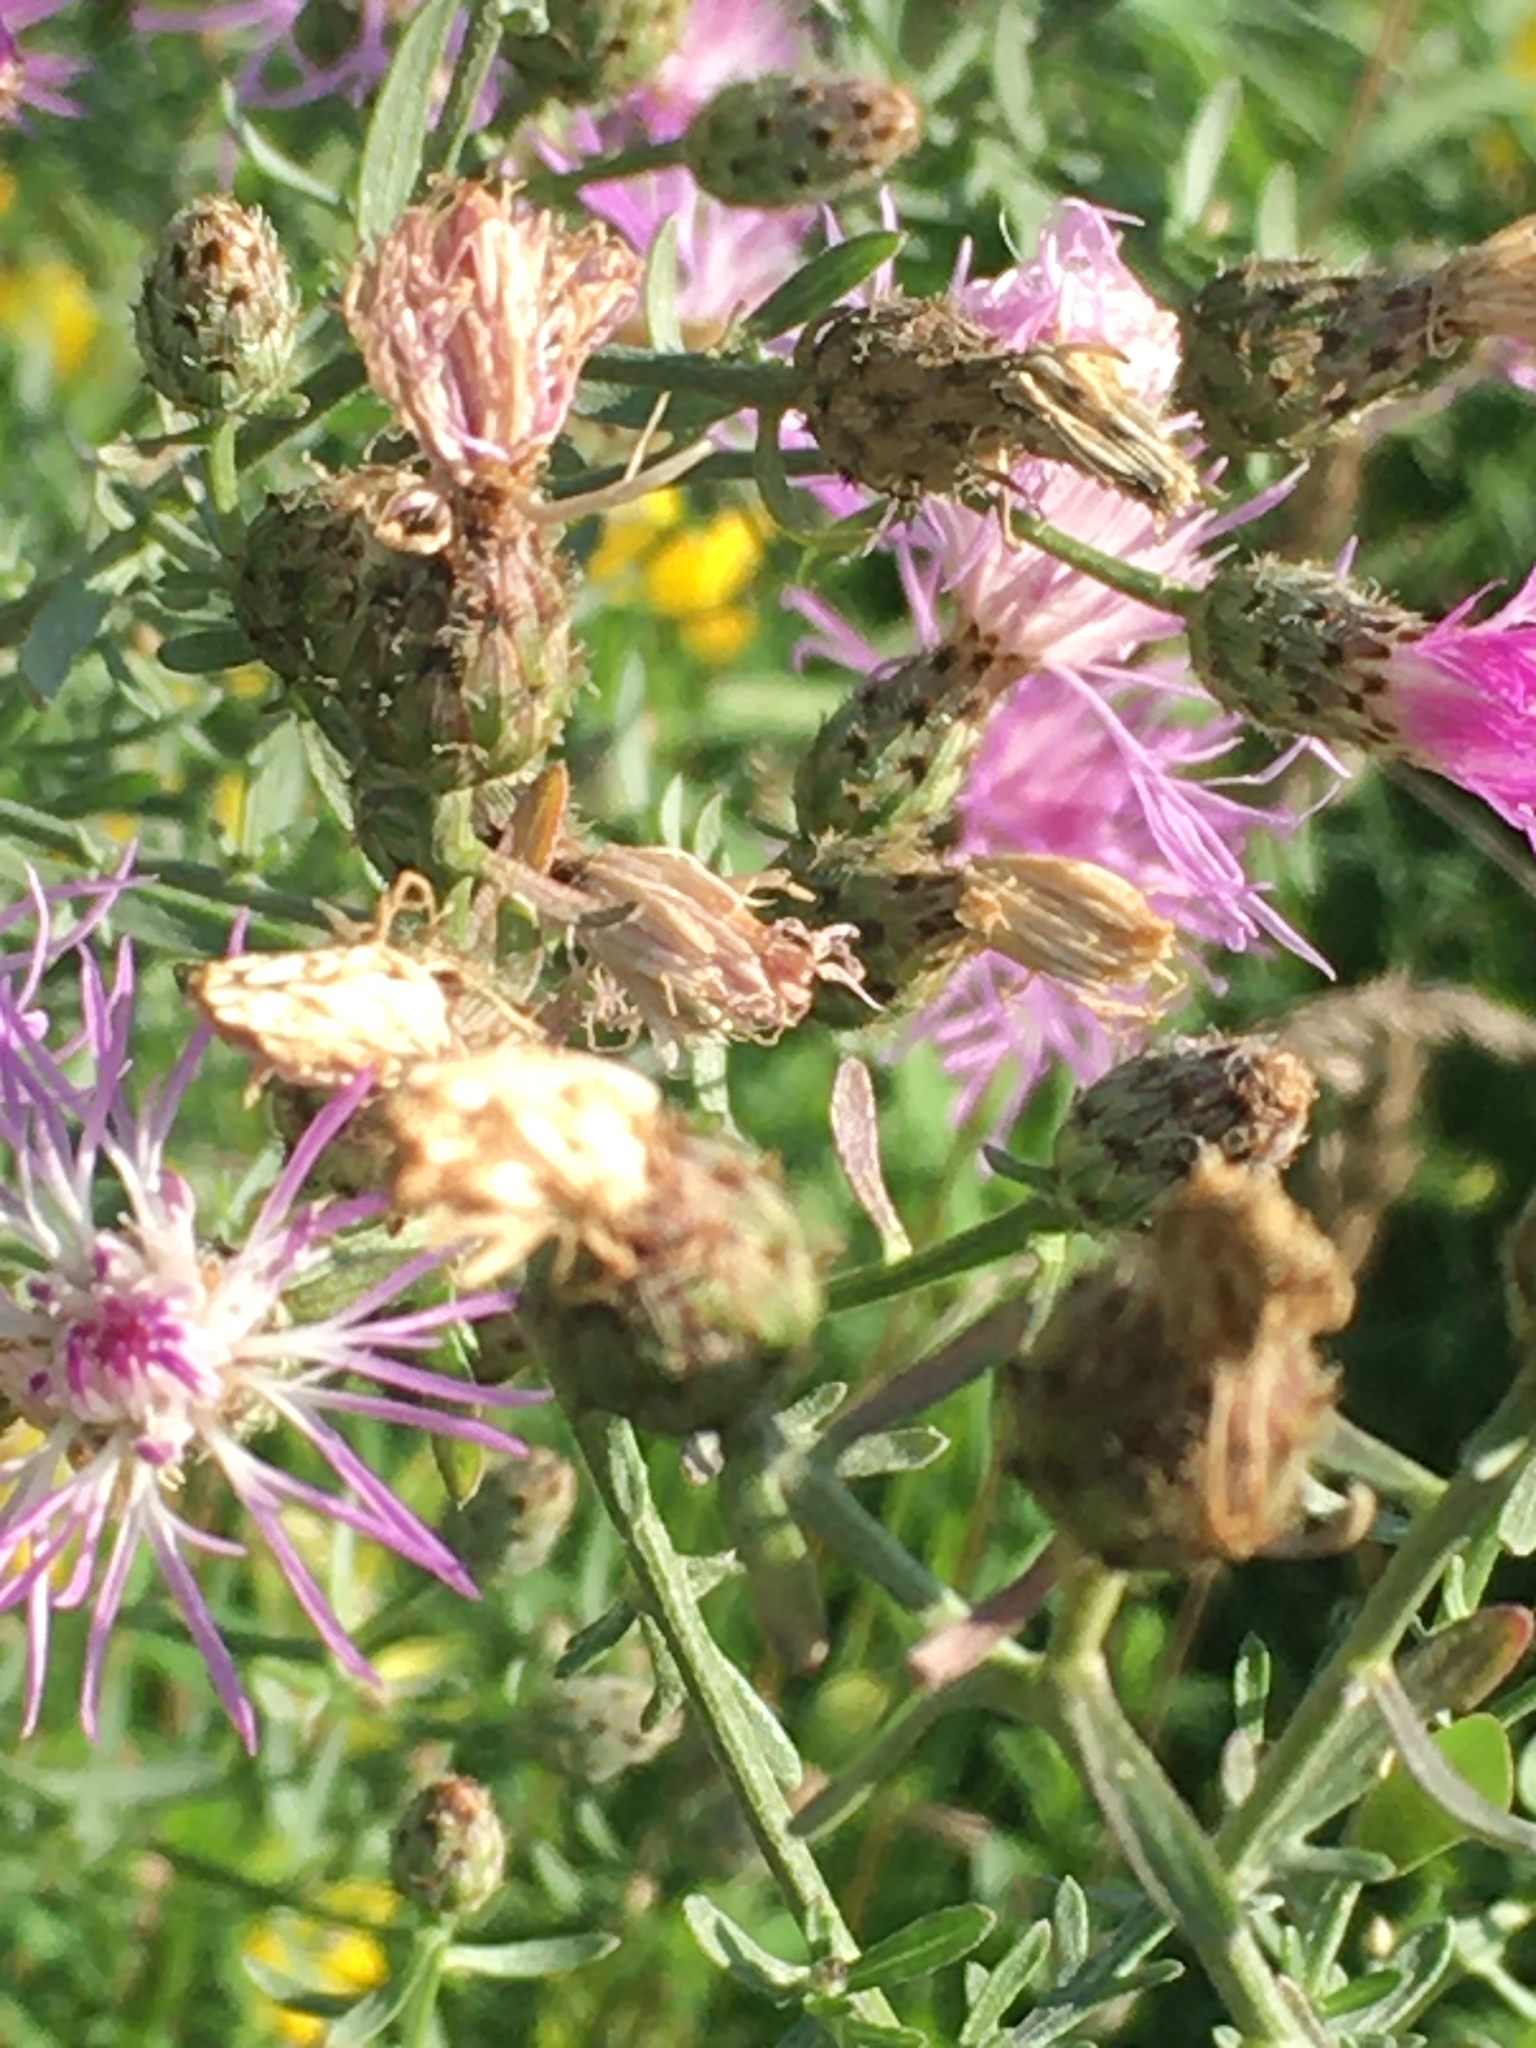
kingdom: Plantae
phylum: Tracheophyta
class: Magnoliopsida
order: Asterales
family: Asteraceae
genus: Centaurea
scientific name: Centaurea stoebe
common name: Spotted knapweed
